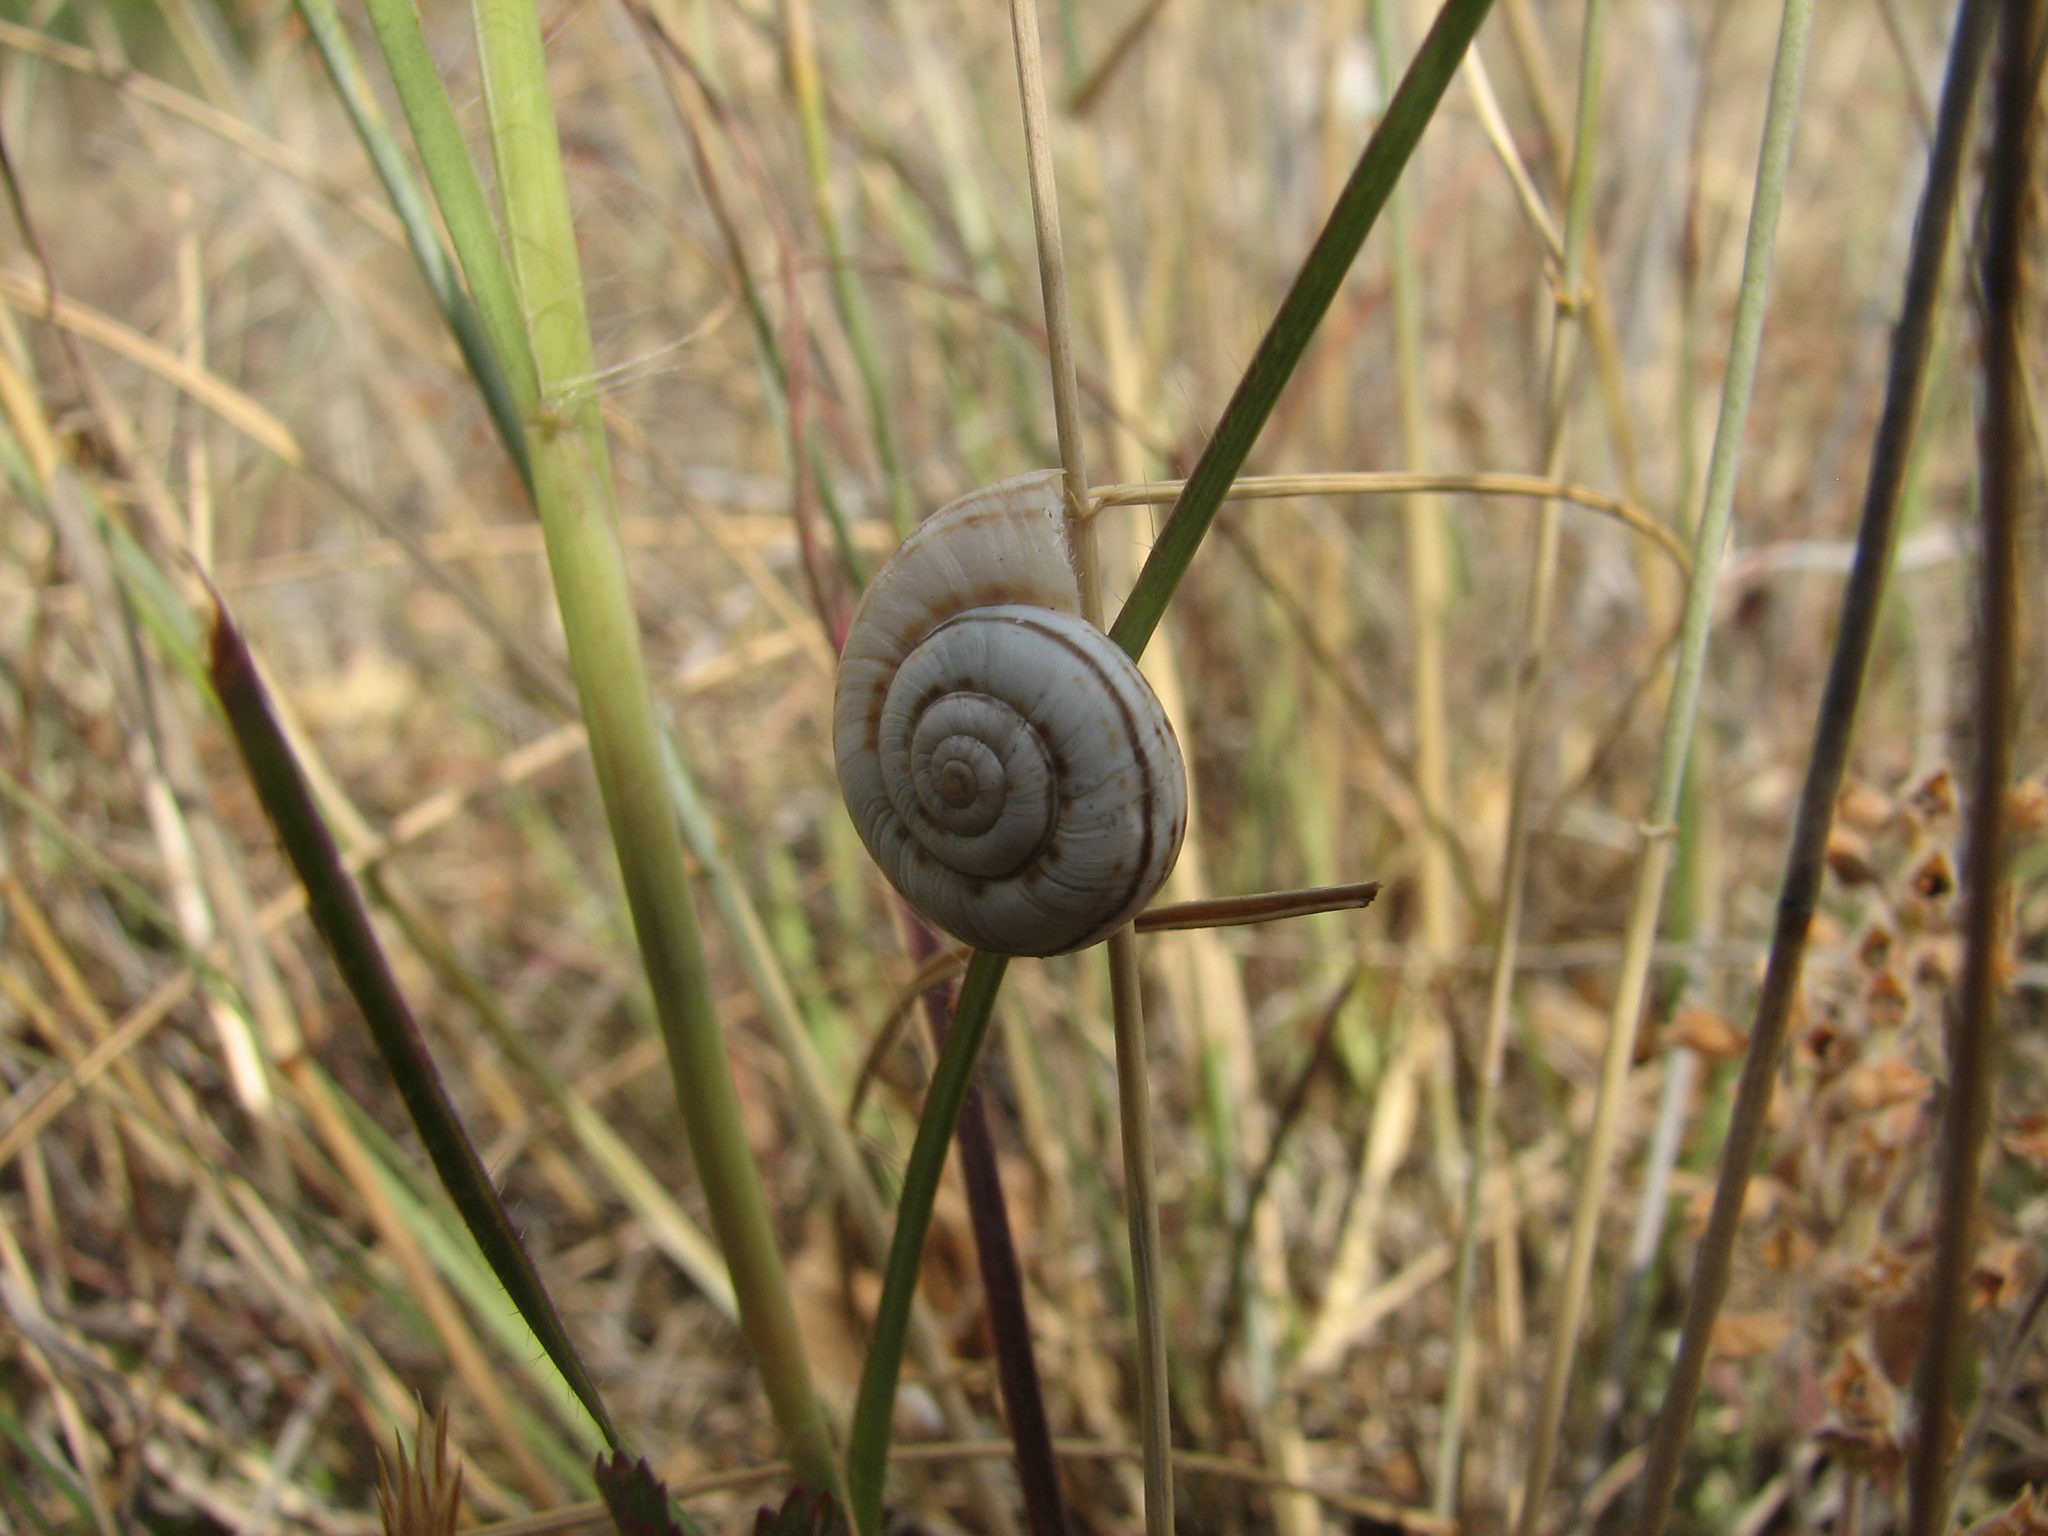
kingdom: Animalia
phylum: Mollusca
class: Gastropoda
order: Stylommatophora
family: Geomitridae
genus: Xeropicta
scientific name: Xeropicta derbentina
